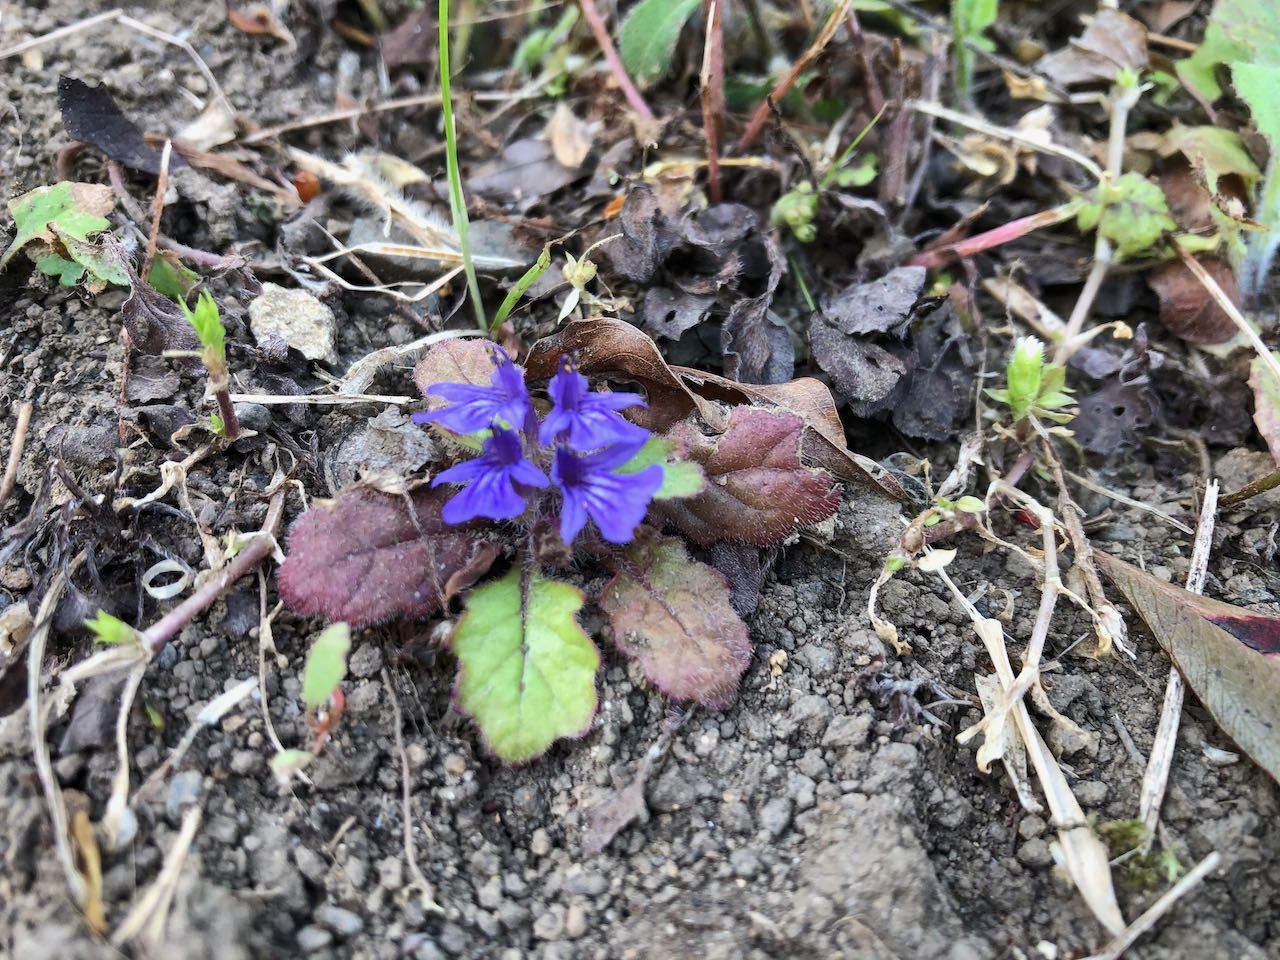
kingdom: Plantae
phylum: Tracheophyta
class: Magnoliopsida
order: Lamiales
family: Lamiaceae
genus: Ajuga
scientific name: Ajuga decumbens
